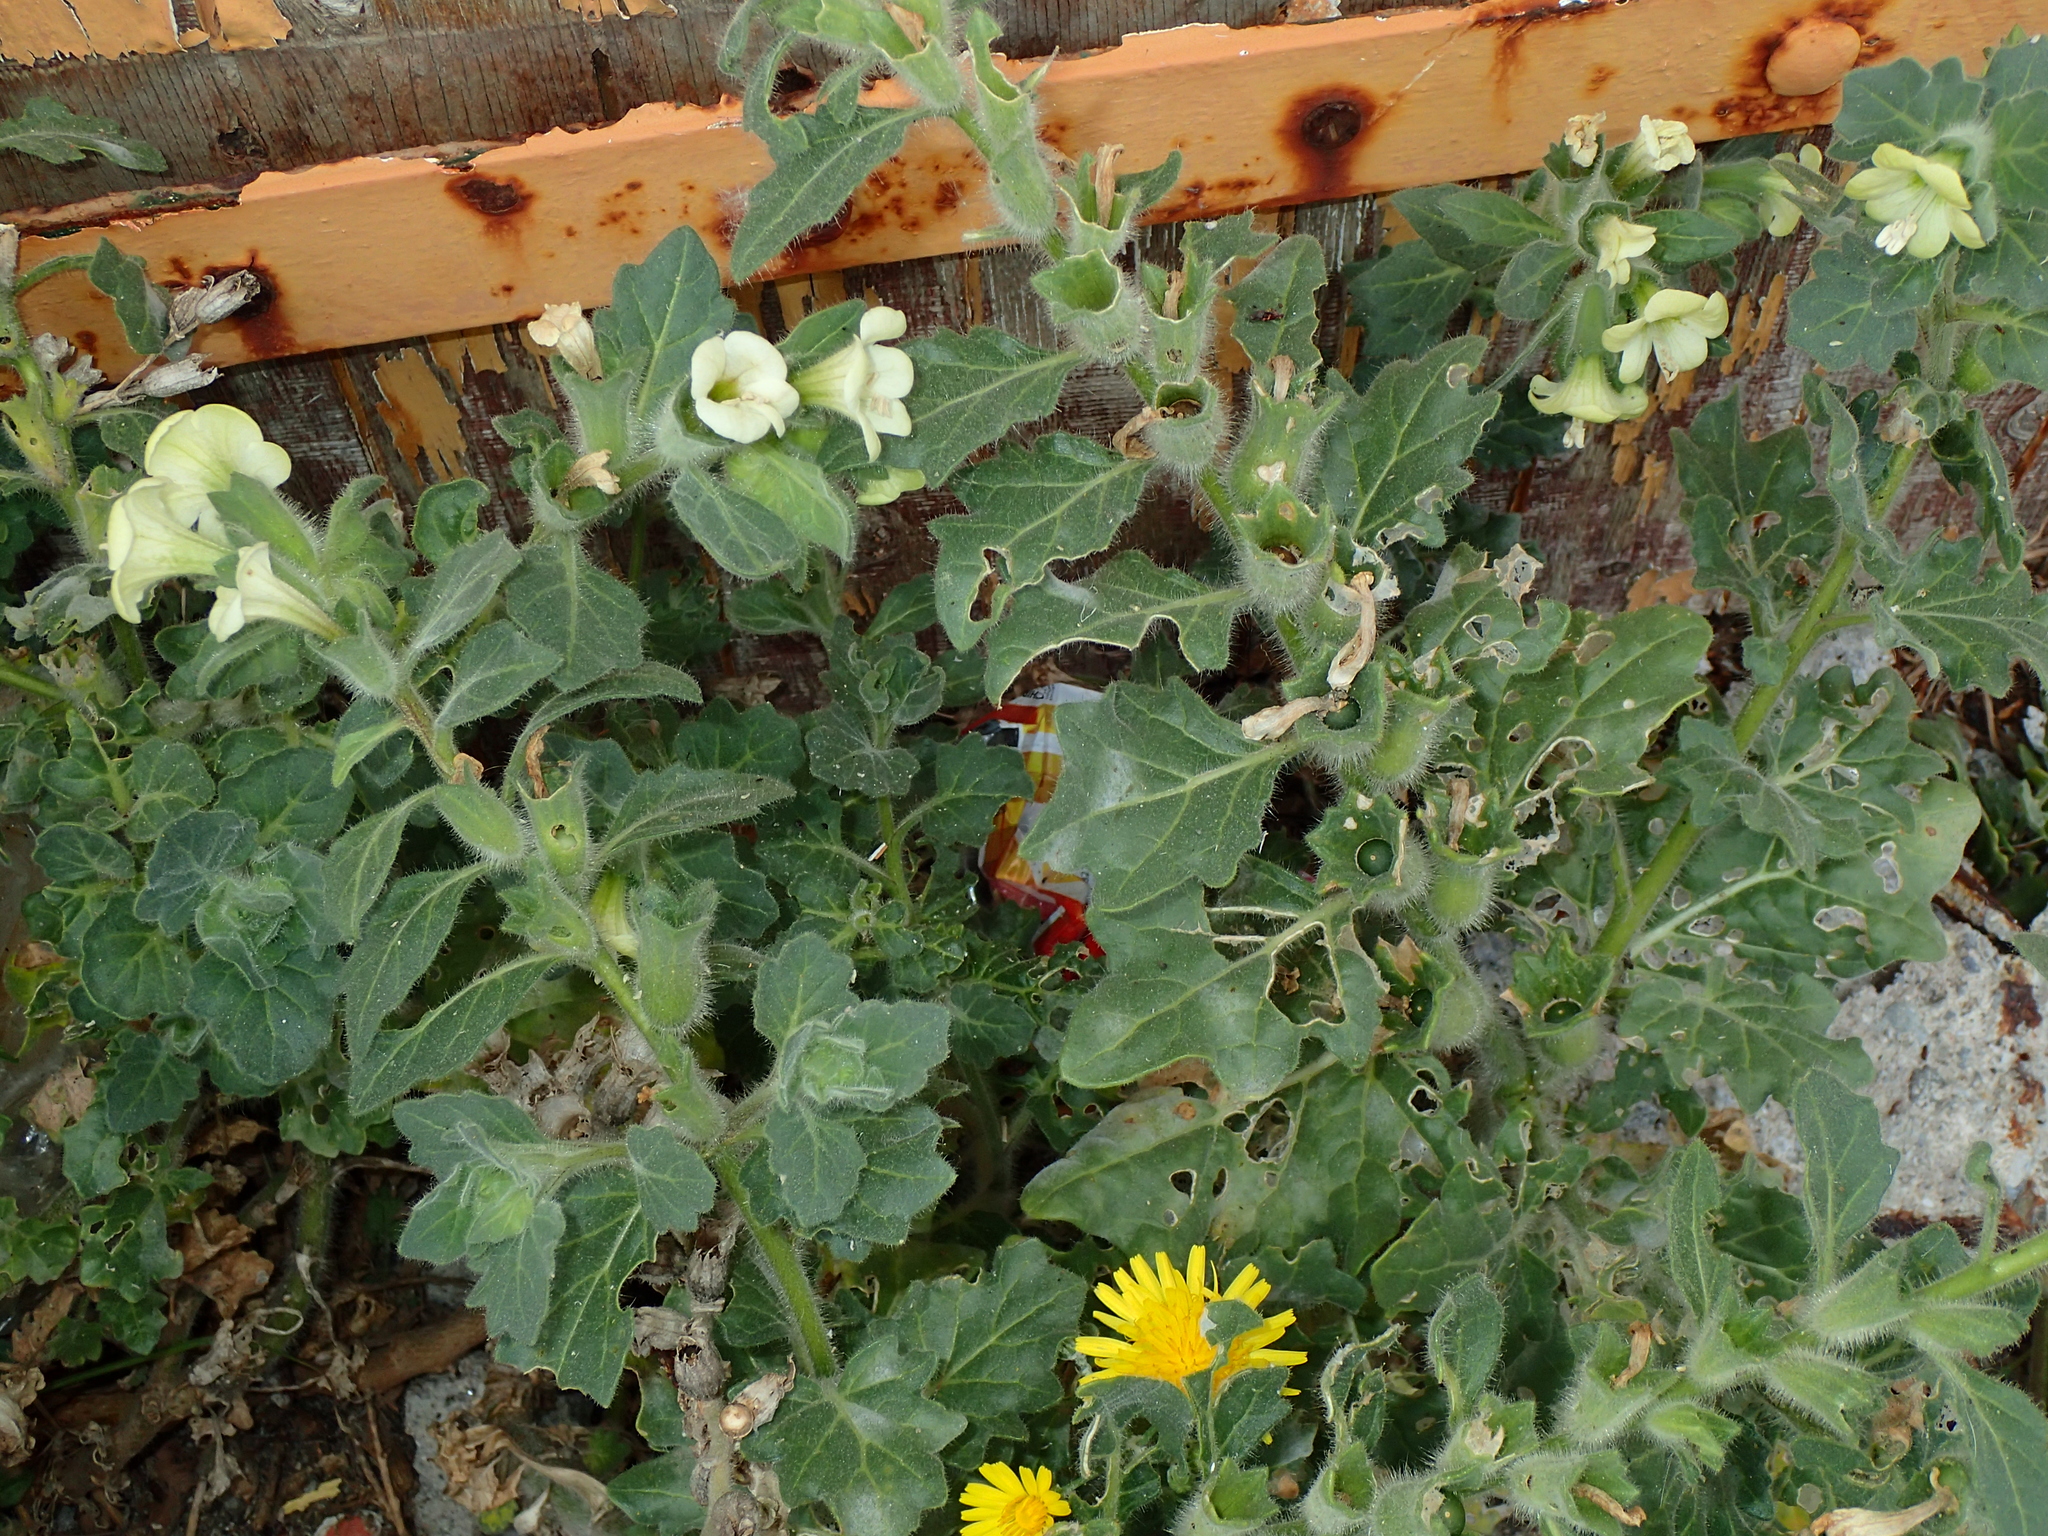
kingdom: Plantae
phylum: Tracheophyta
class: Magnoliopsida
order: Solanales
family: Solanaceae
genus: Hyoscyamus
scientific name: Hyoscyamus albus
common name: White henbane
